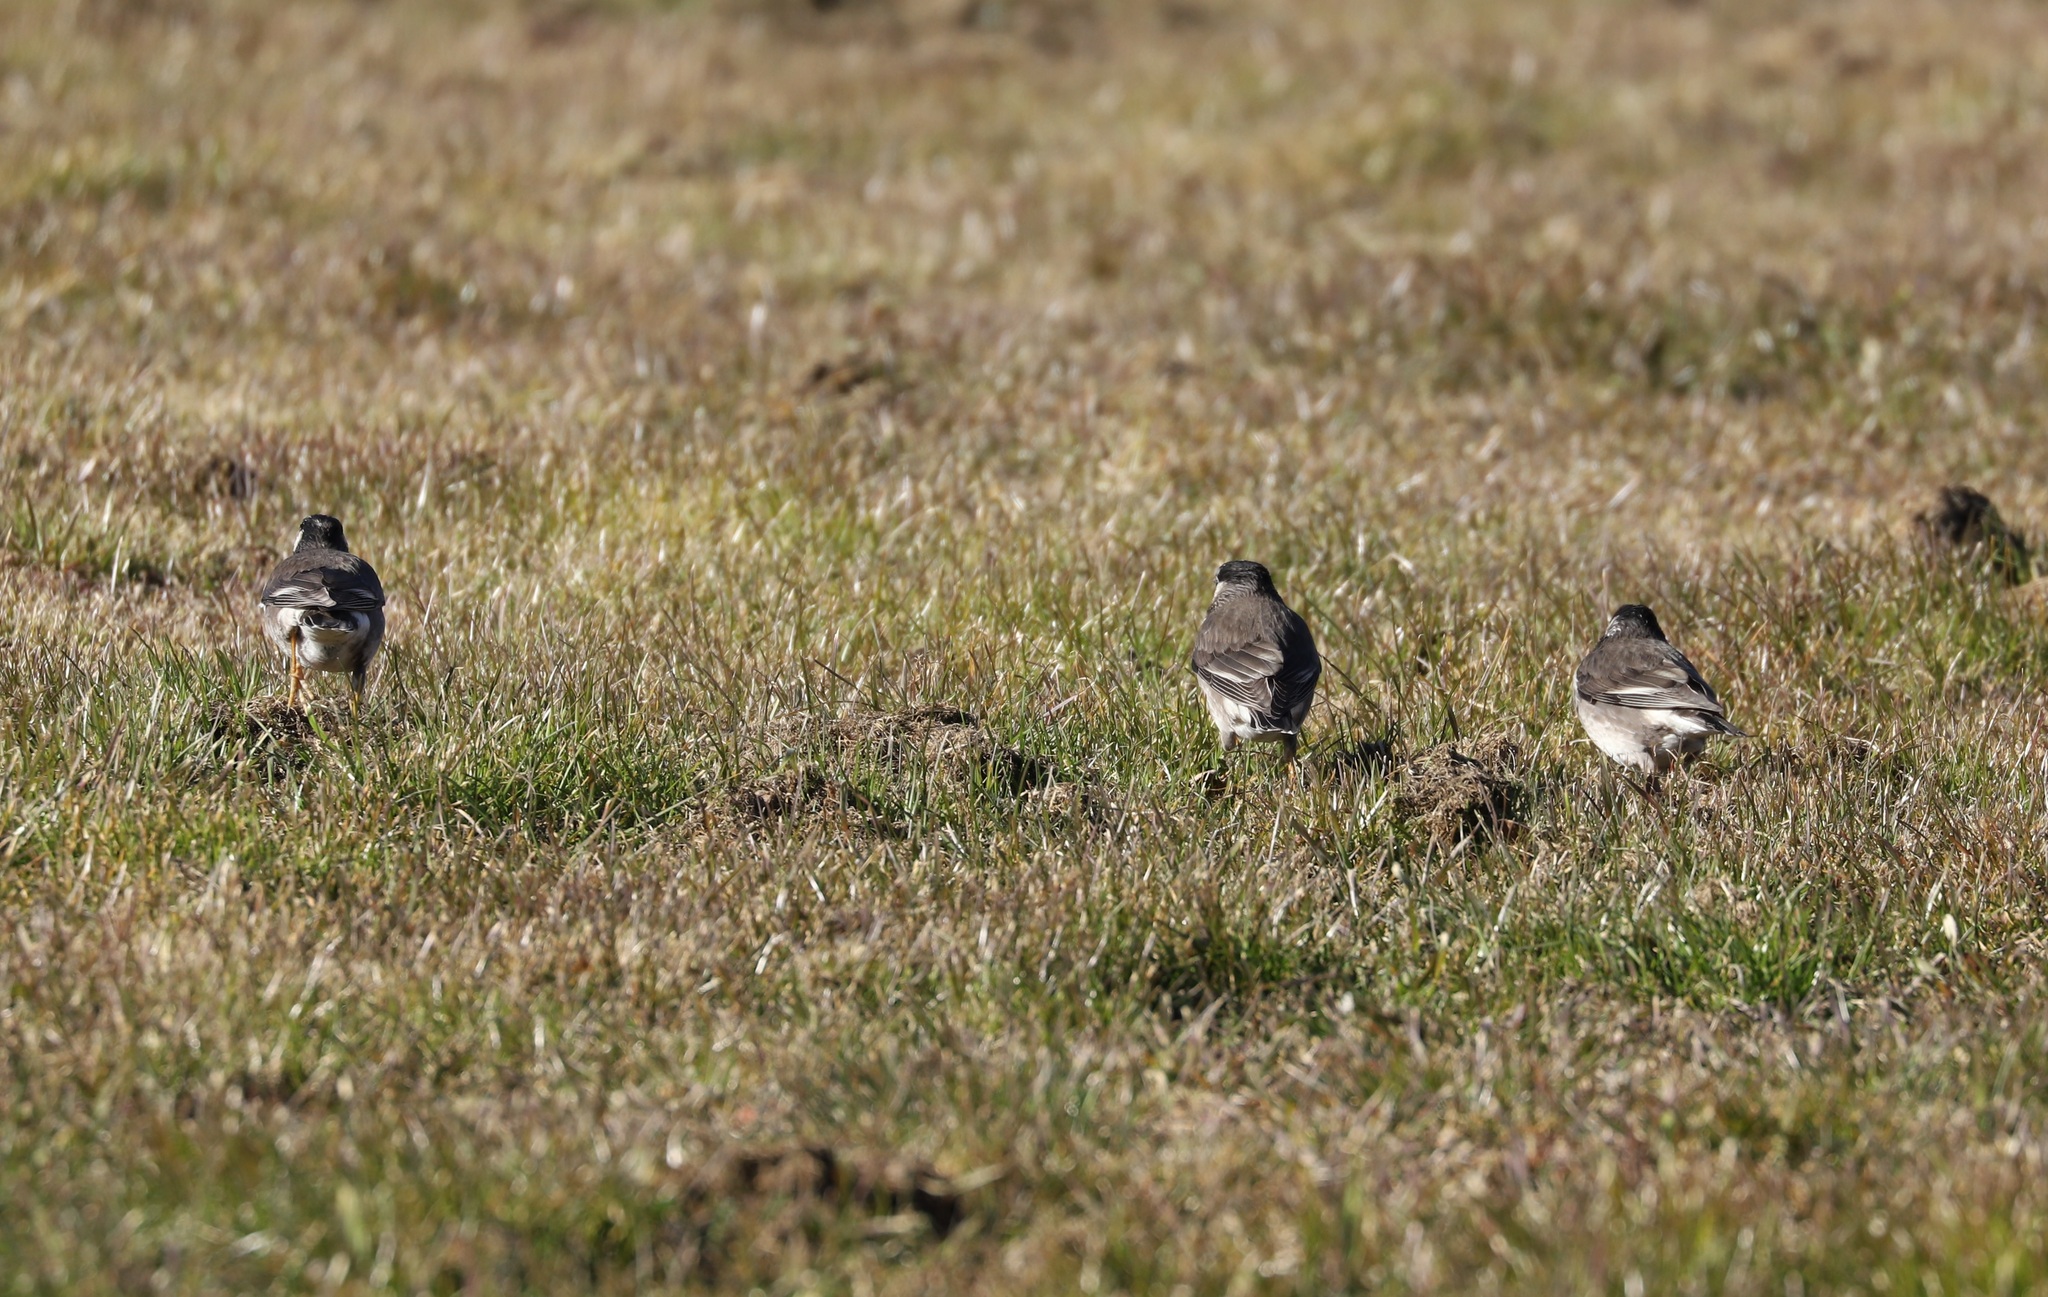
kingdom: Animalia
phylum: Chordata
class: Aves
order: Passeriformes
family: Sturnidae
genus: Spodiopsar
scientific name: Spodiopsar cineraceus
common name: White-cheeked starling
